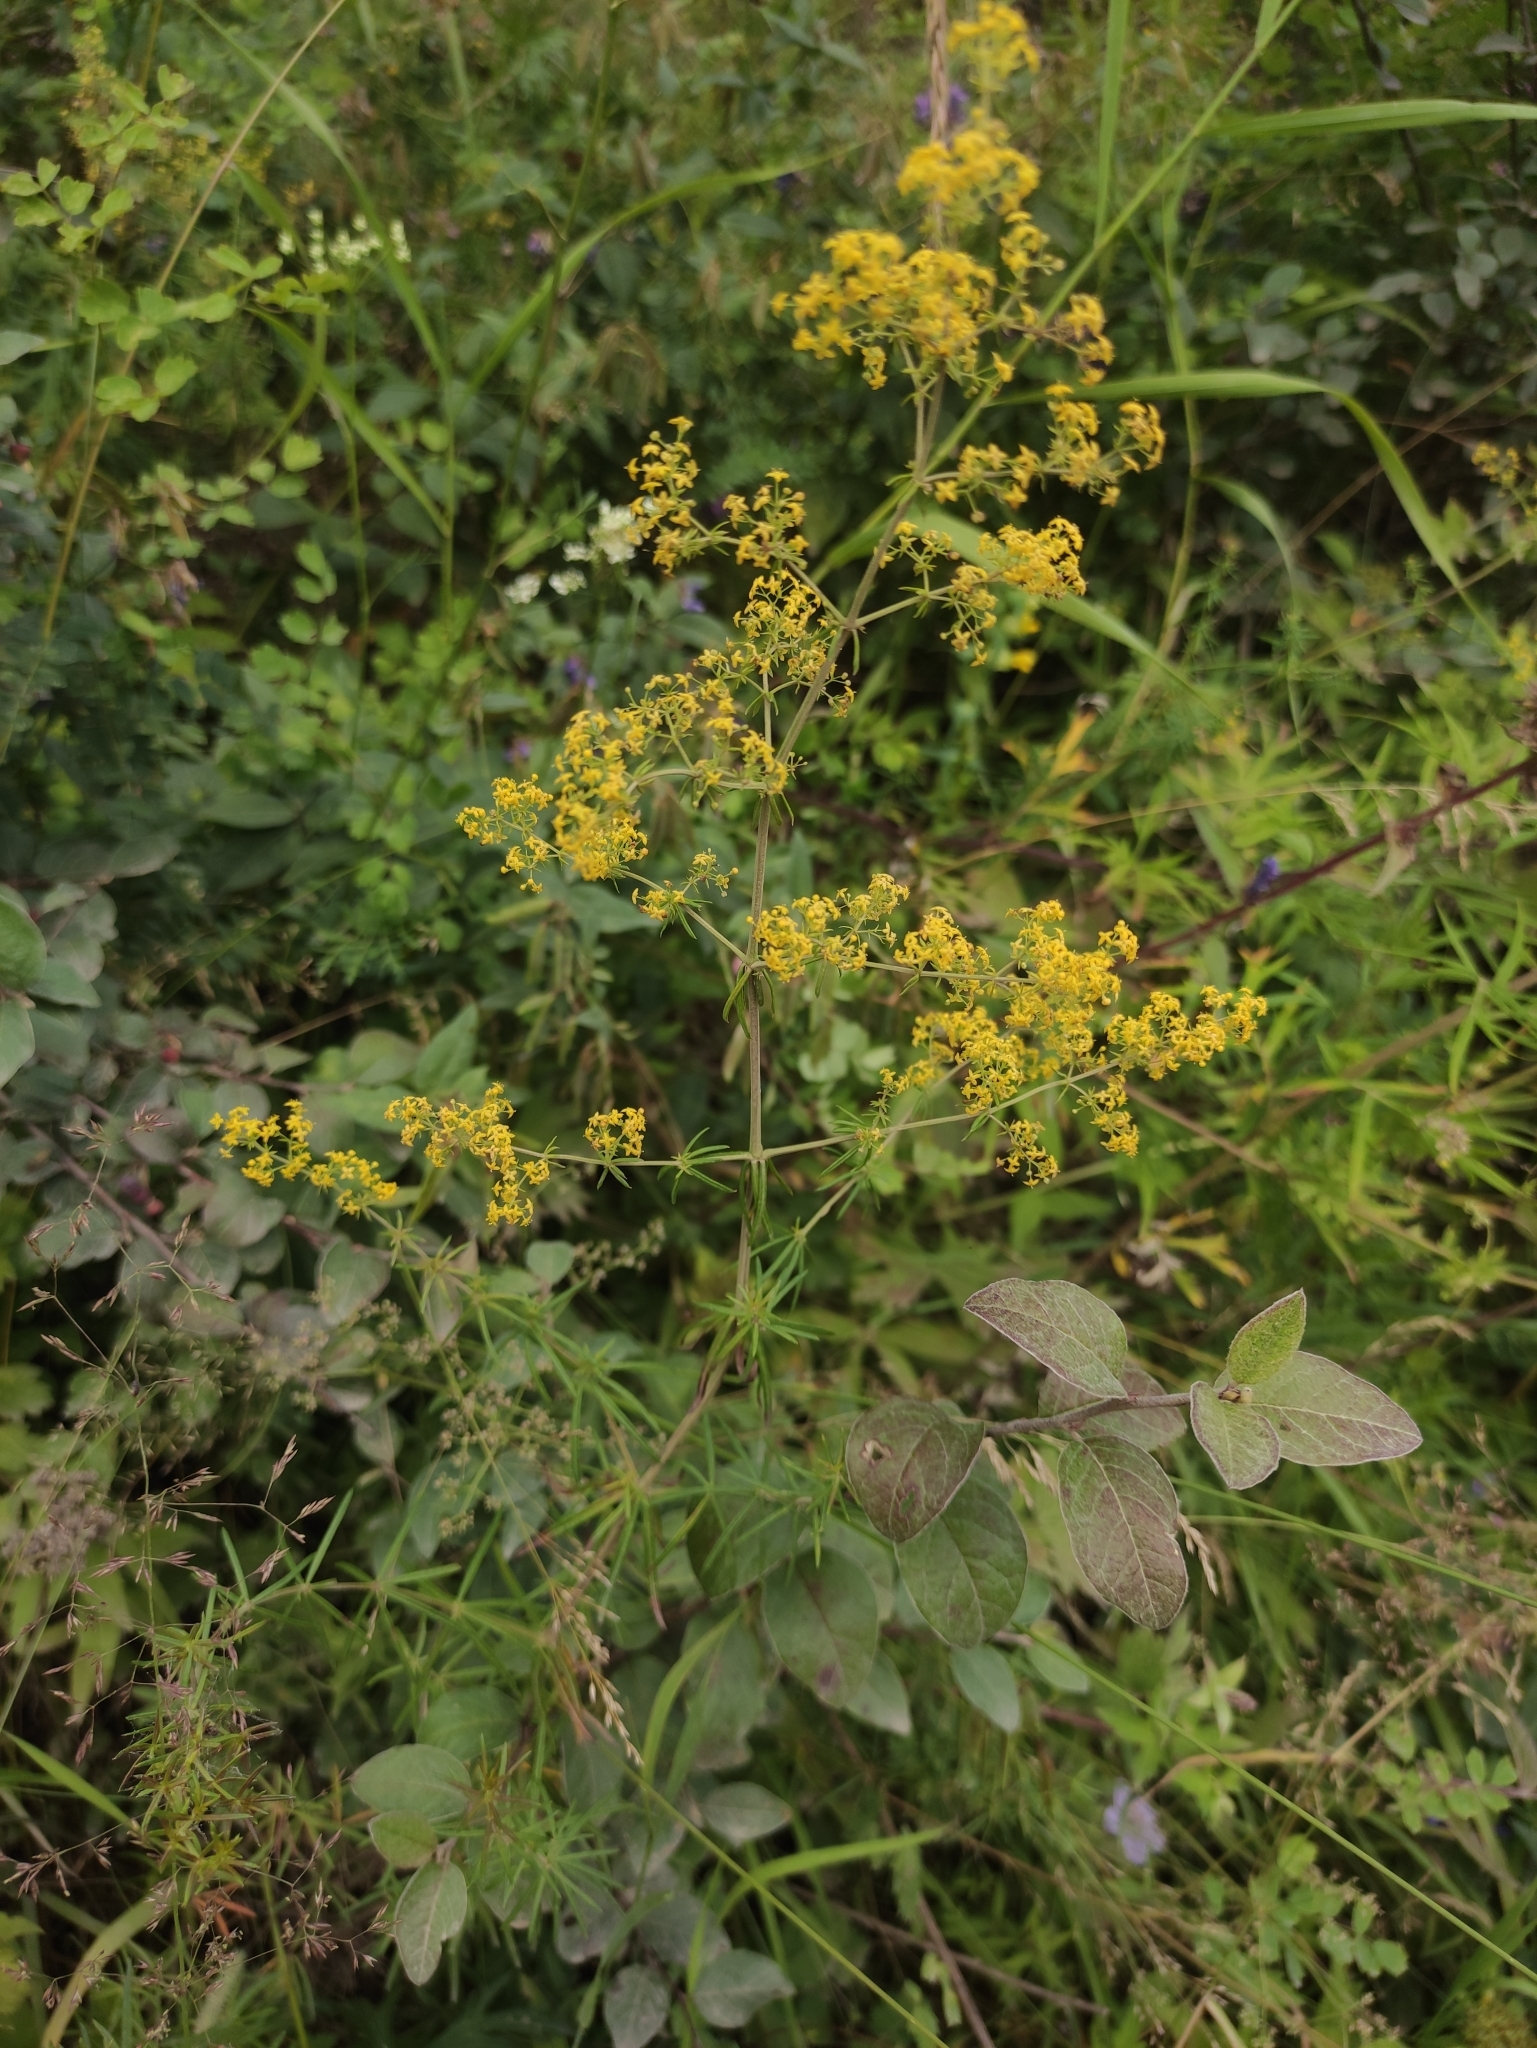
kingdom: Plantae
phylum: Tracheophyta
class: Magnoliopsida
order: Gentianales
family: Rubiaceae
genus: Galium
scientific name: Galium verum
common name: Lady's bedstraw
